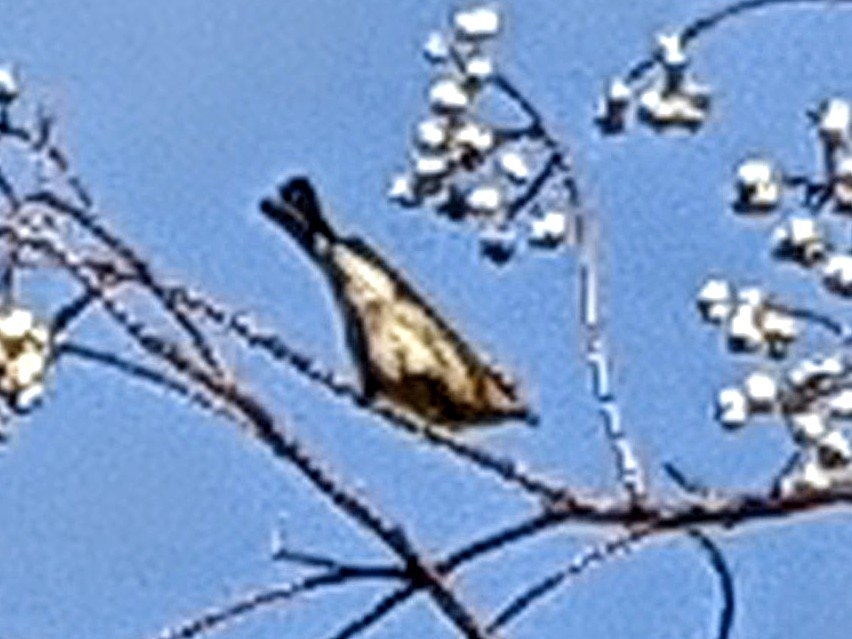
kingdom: Animalia
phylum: Chordata
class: Aves
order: Passeriformes
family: Sittidae
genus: Sitta
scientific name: Sitta canadensis
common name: Red-breasted nuthatch
